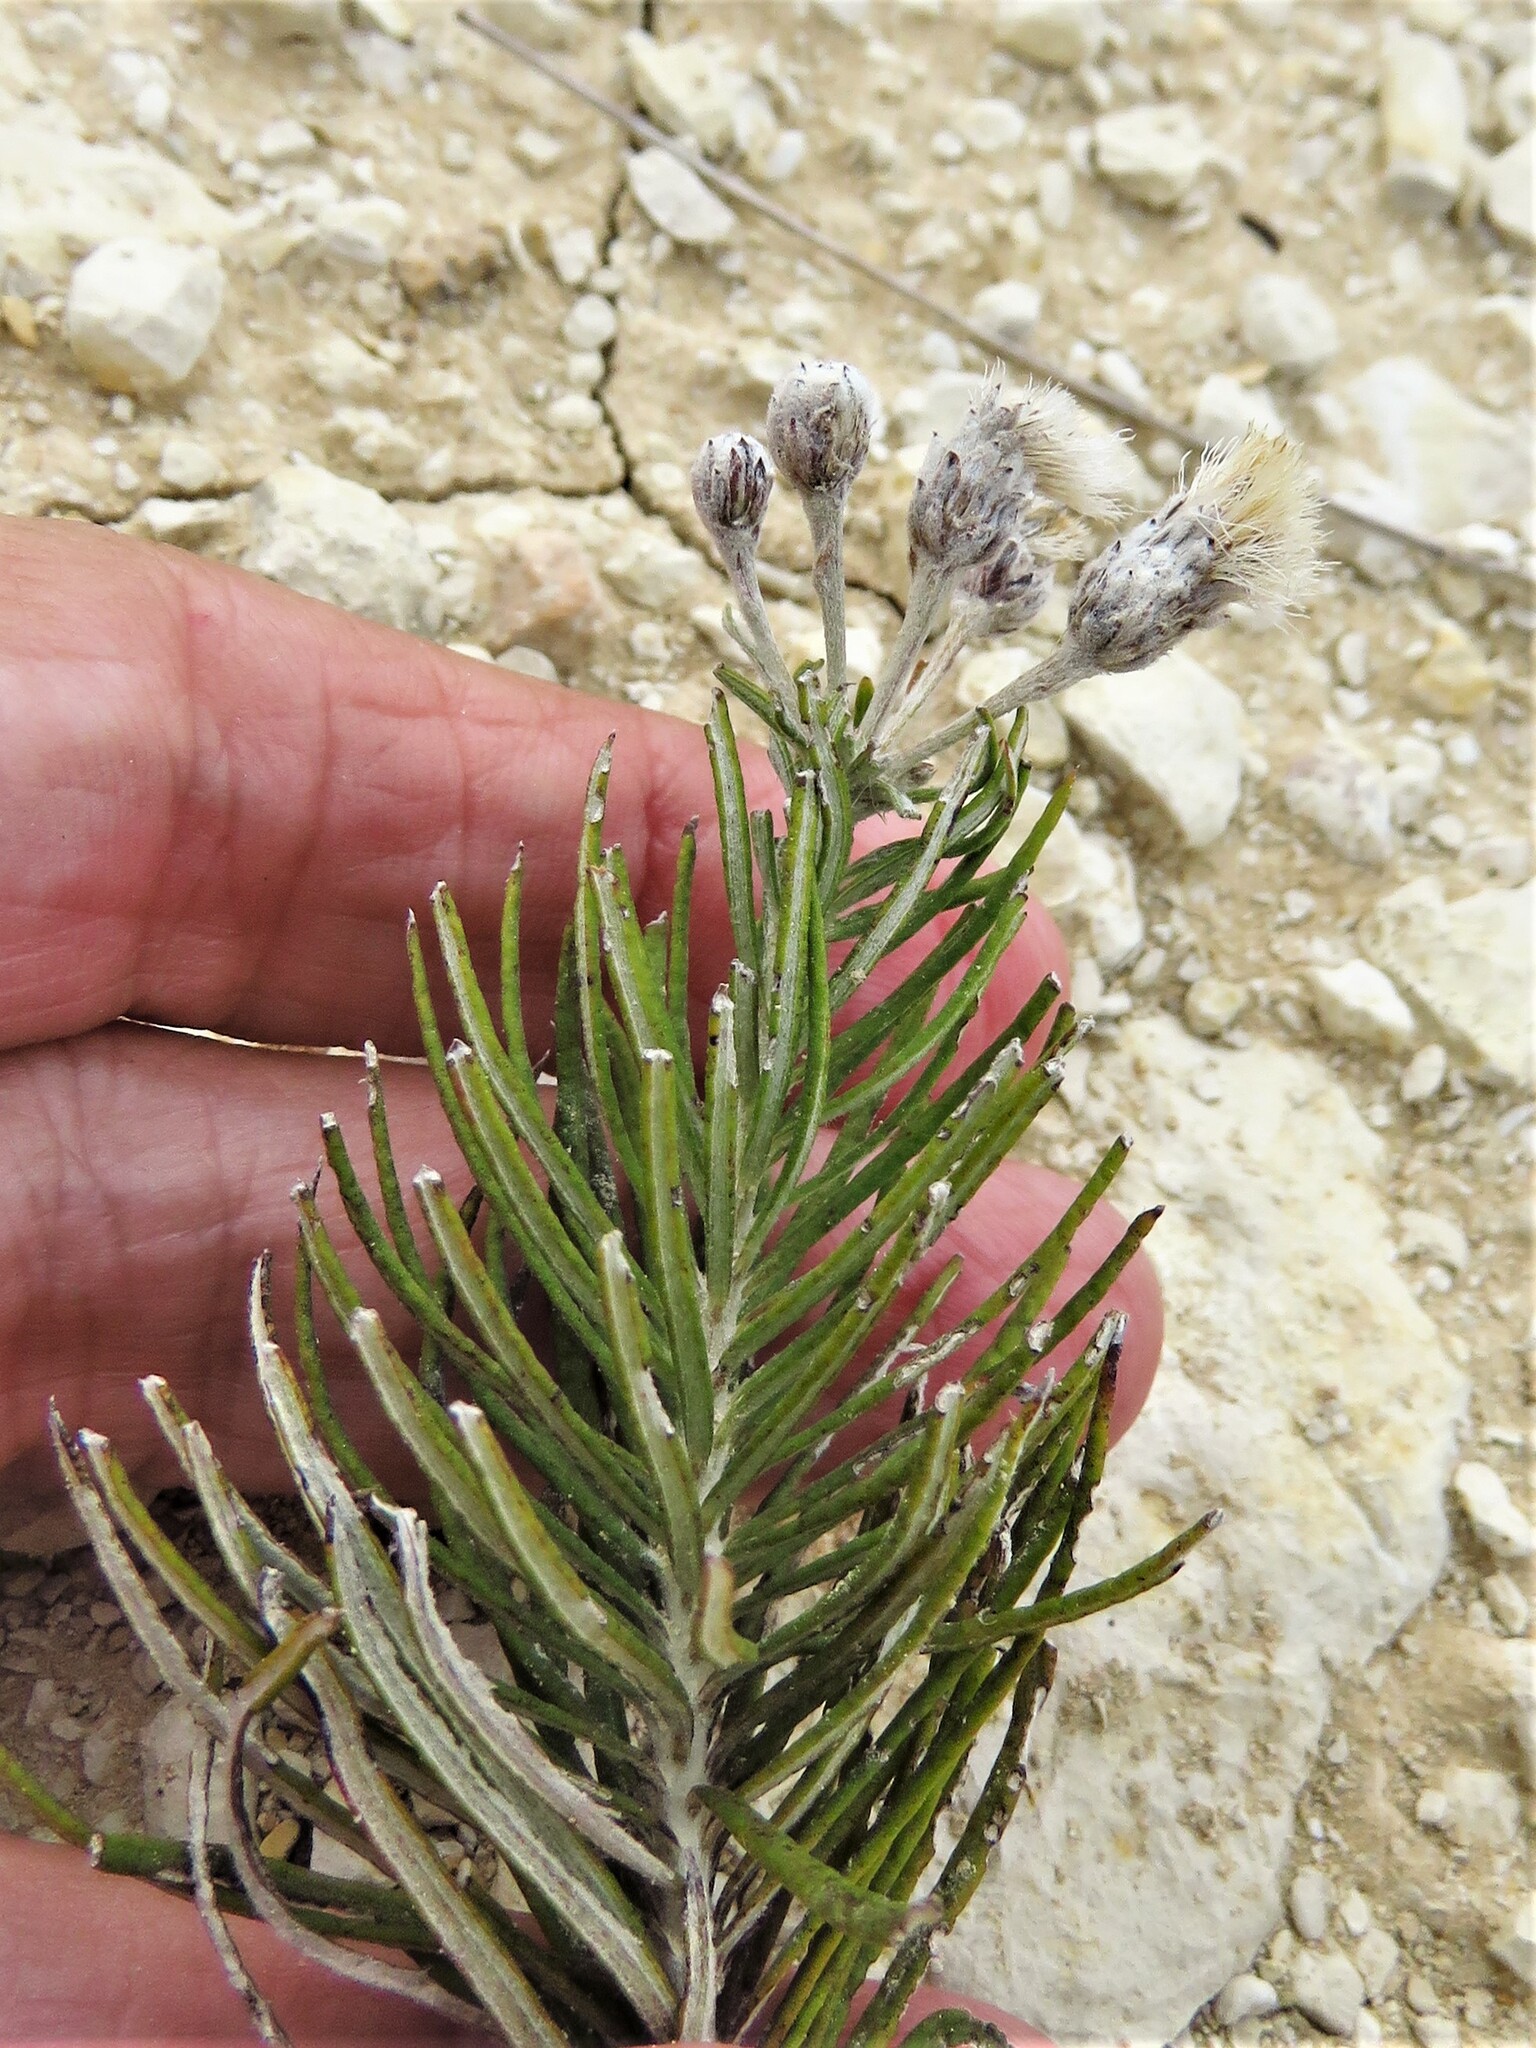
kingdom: Plantae
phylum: Tracheophyta
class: Magnoliopsida
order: Asterales
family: Asteraceae
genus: Vernonia
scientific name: Vernonia lindheimeri
